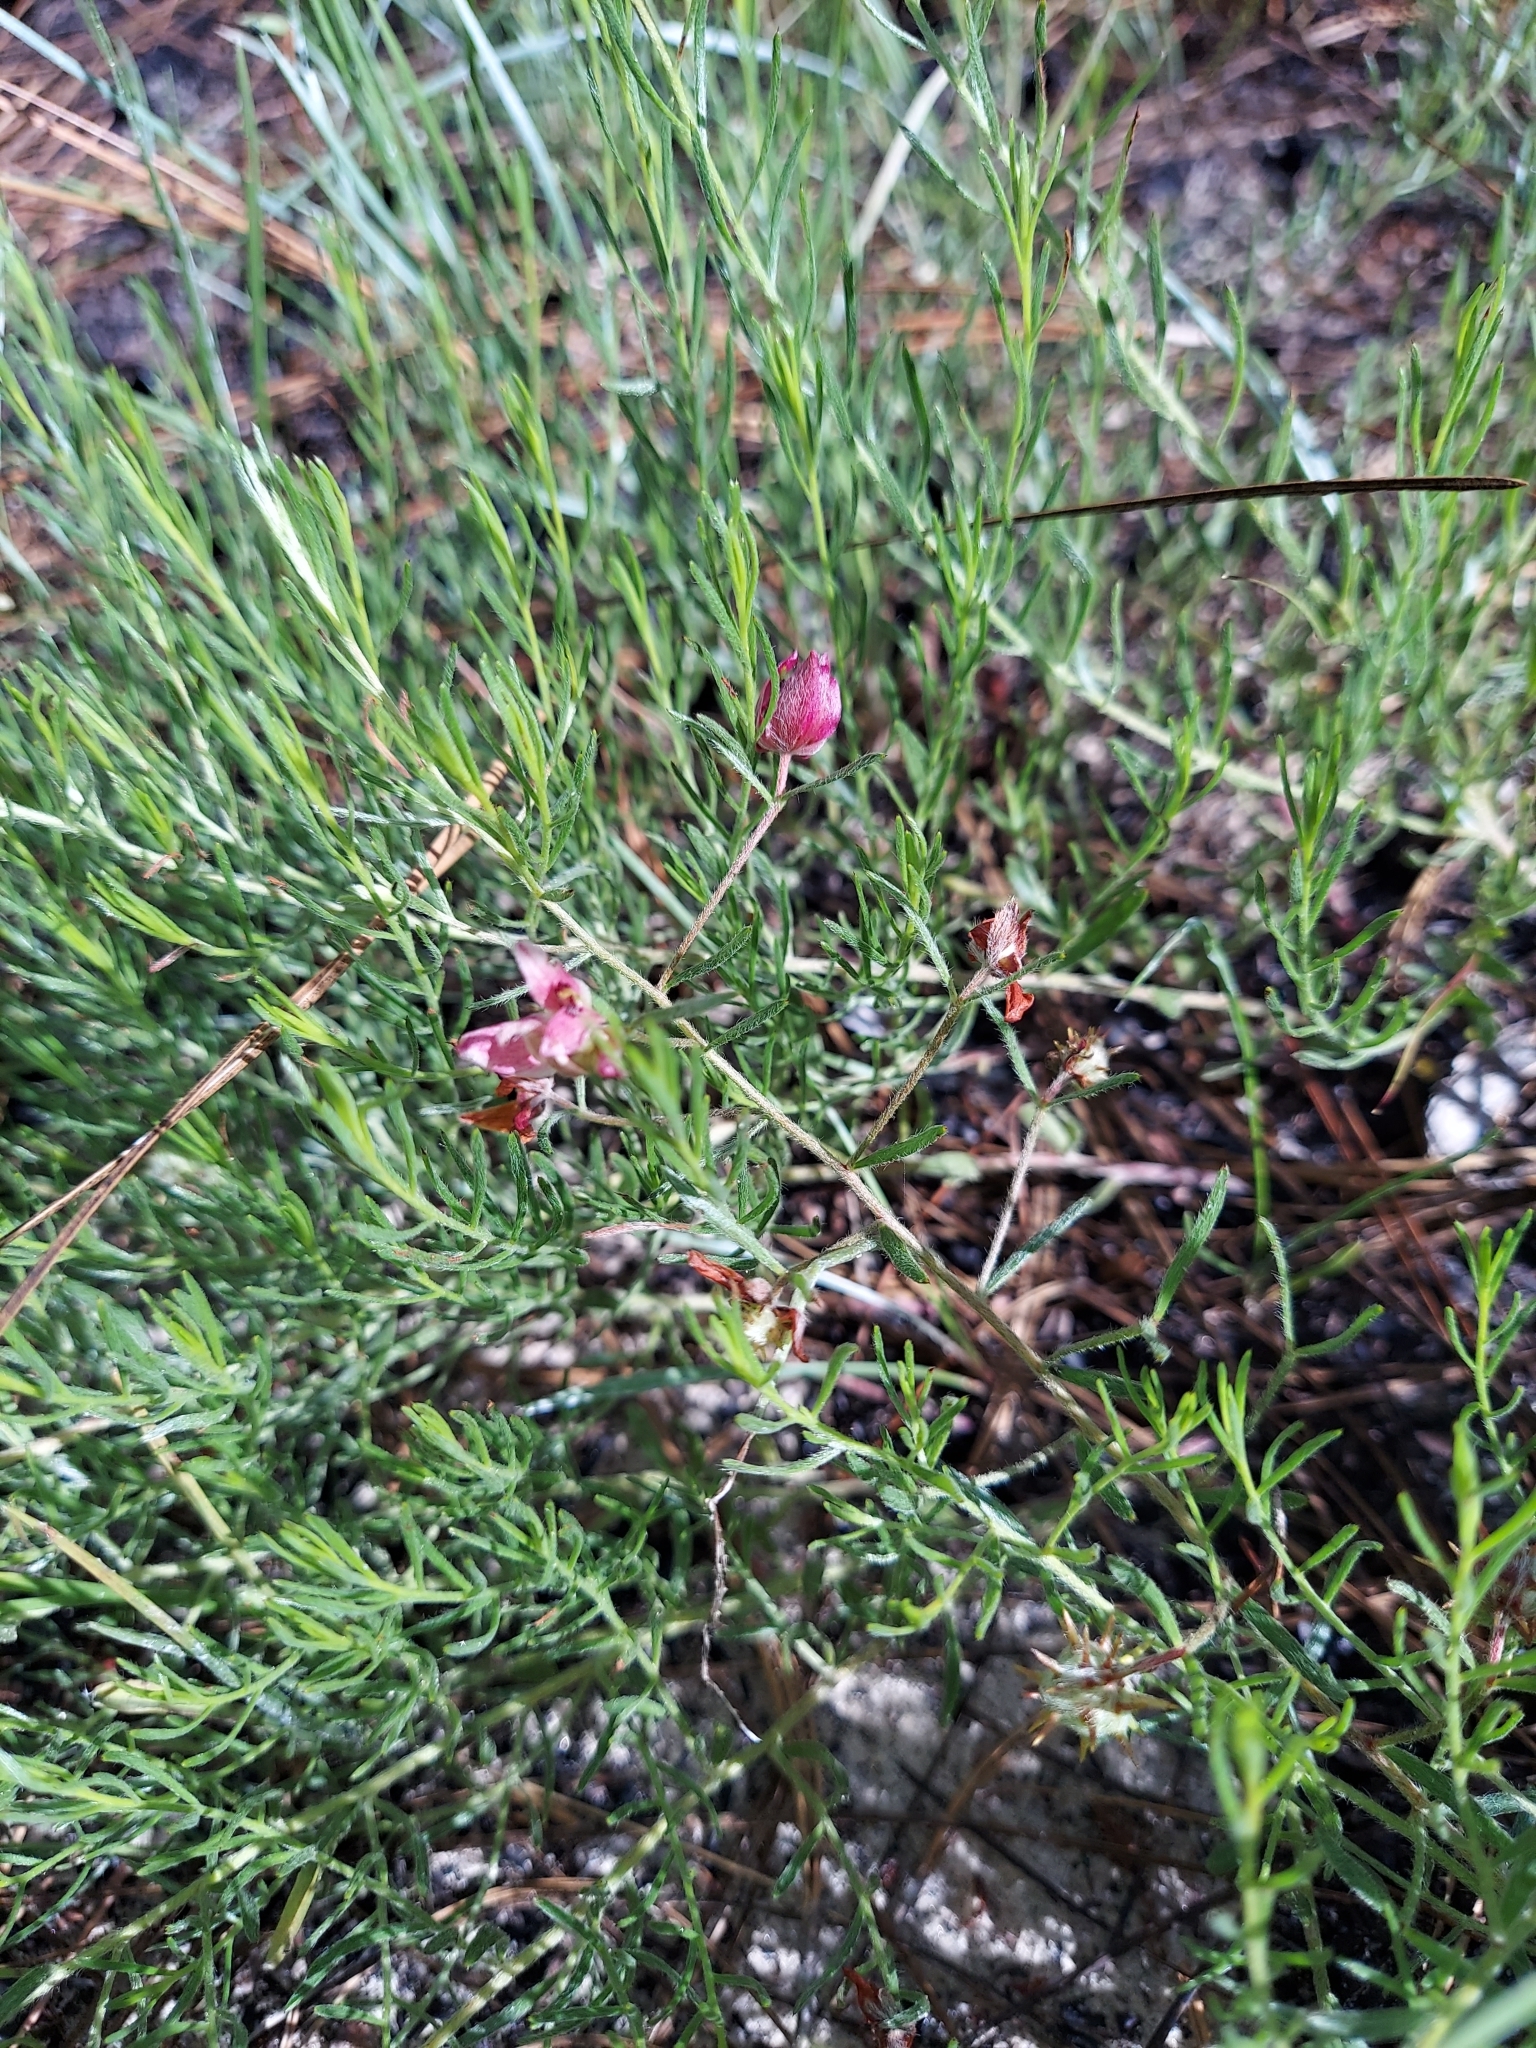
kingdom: Plantae
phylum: Tracheophyta
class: Magnoliopsida
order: Zygophyllales
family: Krameriaceae
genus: Krameria
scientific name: Krameria lanceolata
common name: Ratany
